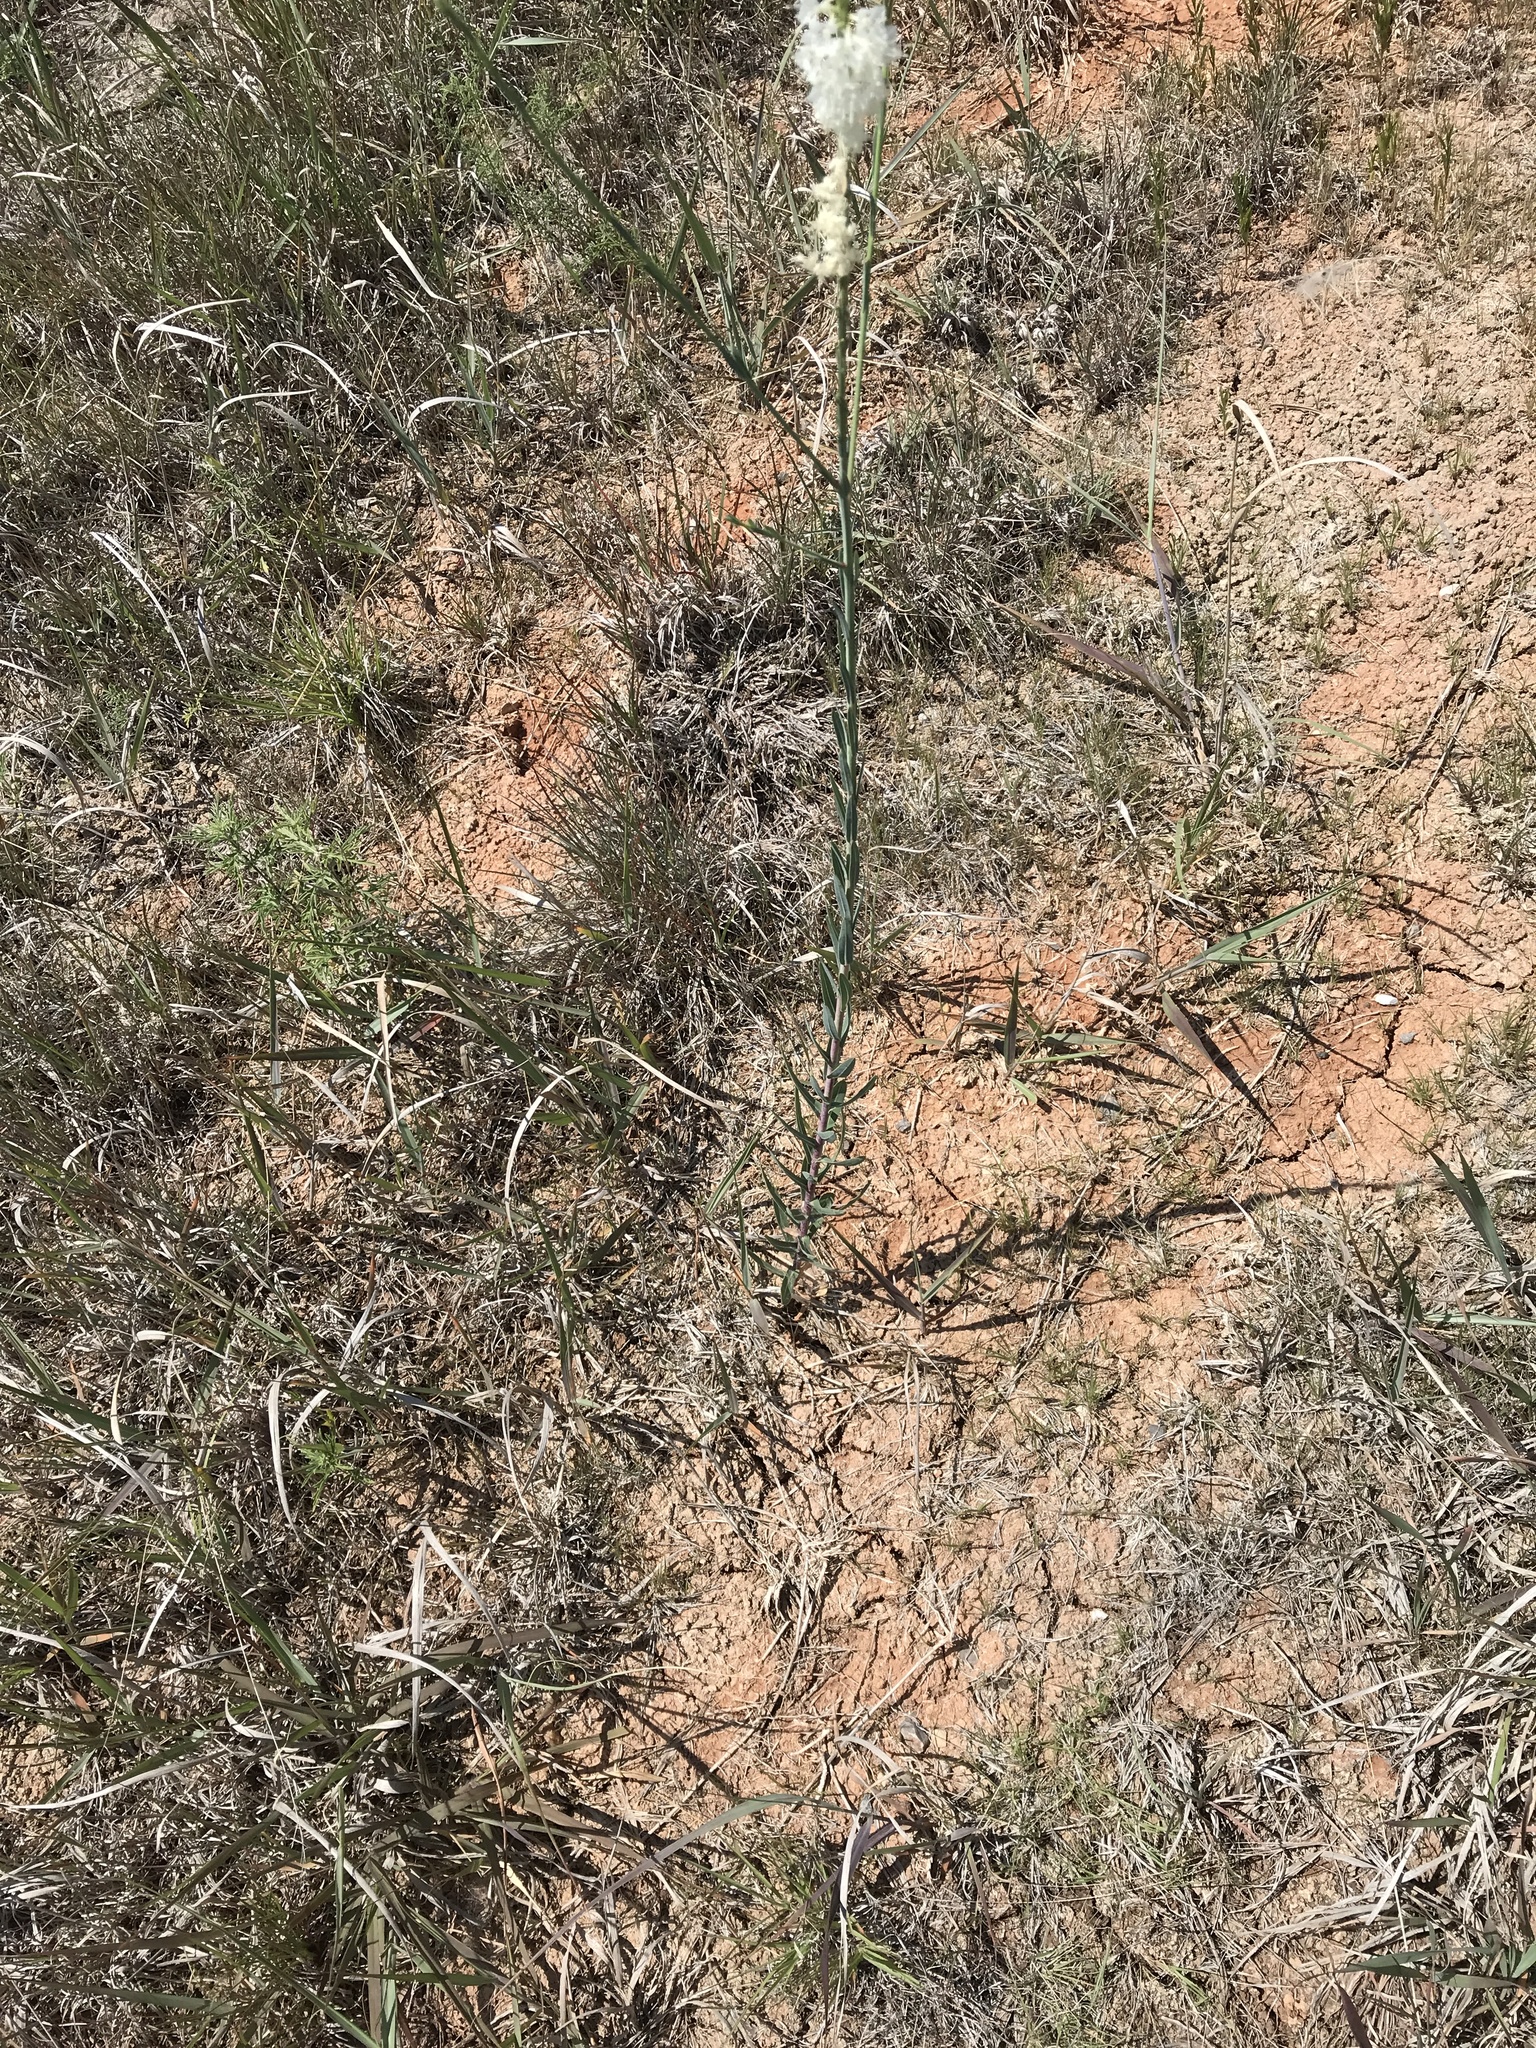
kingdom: Plantae
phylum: Tracheophyta
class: Magnoliopsida
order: Myrtales
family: Onagraceae
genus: Oenothera
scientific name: Oenothera glaucifolia
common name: False gaura
